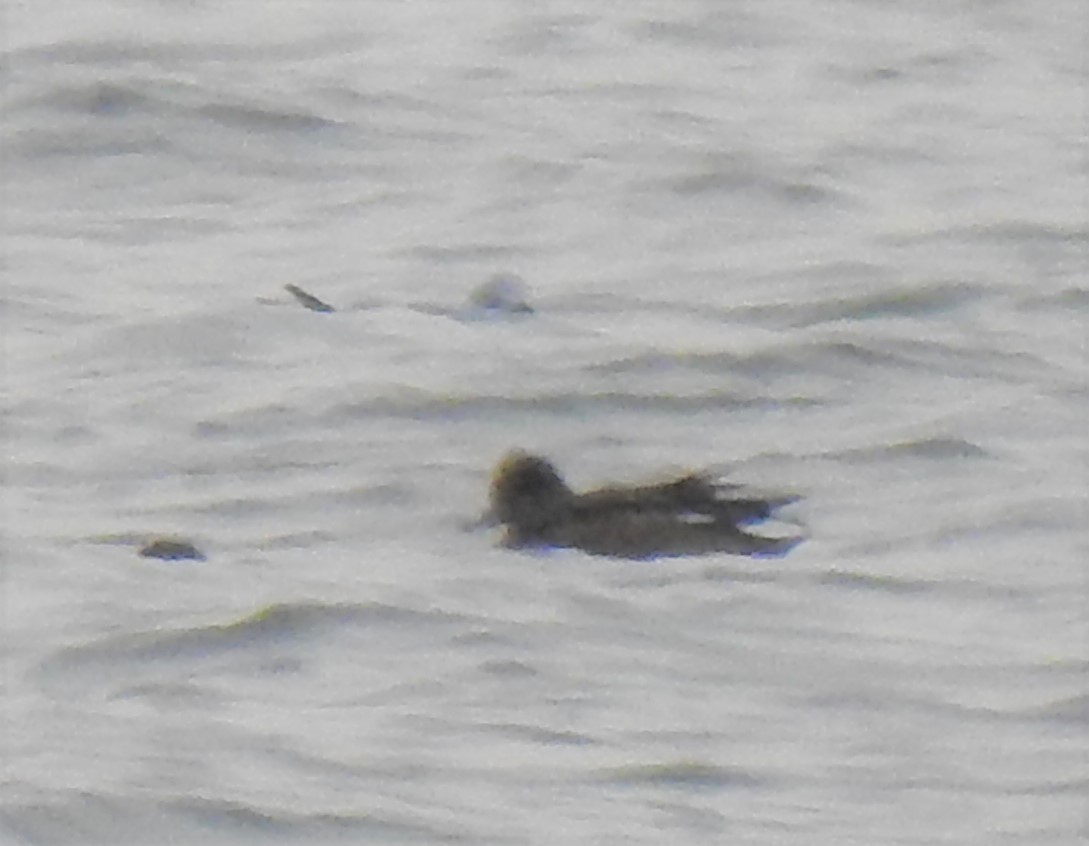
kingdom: Animalia
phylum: Chordata
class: Aves
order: Anseriformes
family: Anatidae
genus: Mareca
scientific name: Mareca americana
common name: American wigeon
